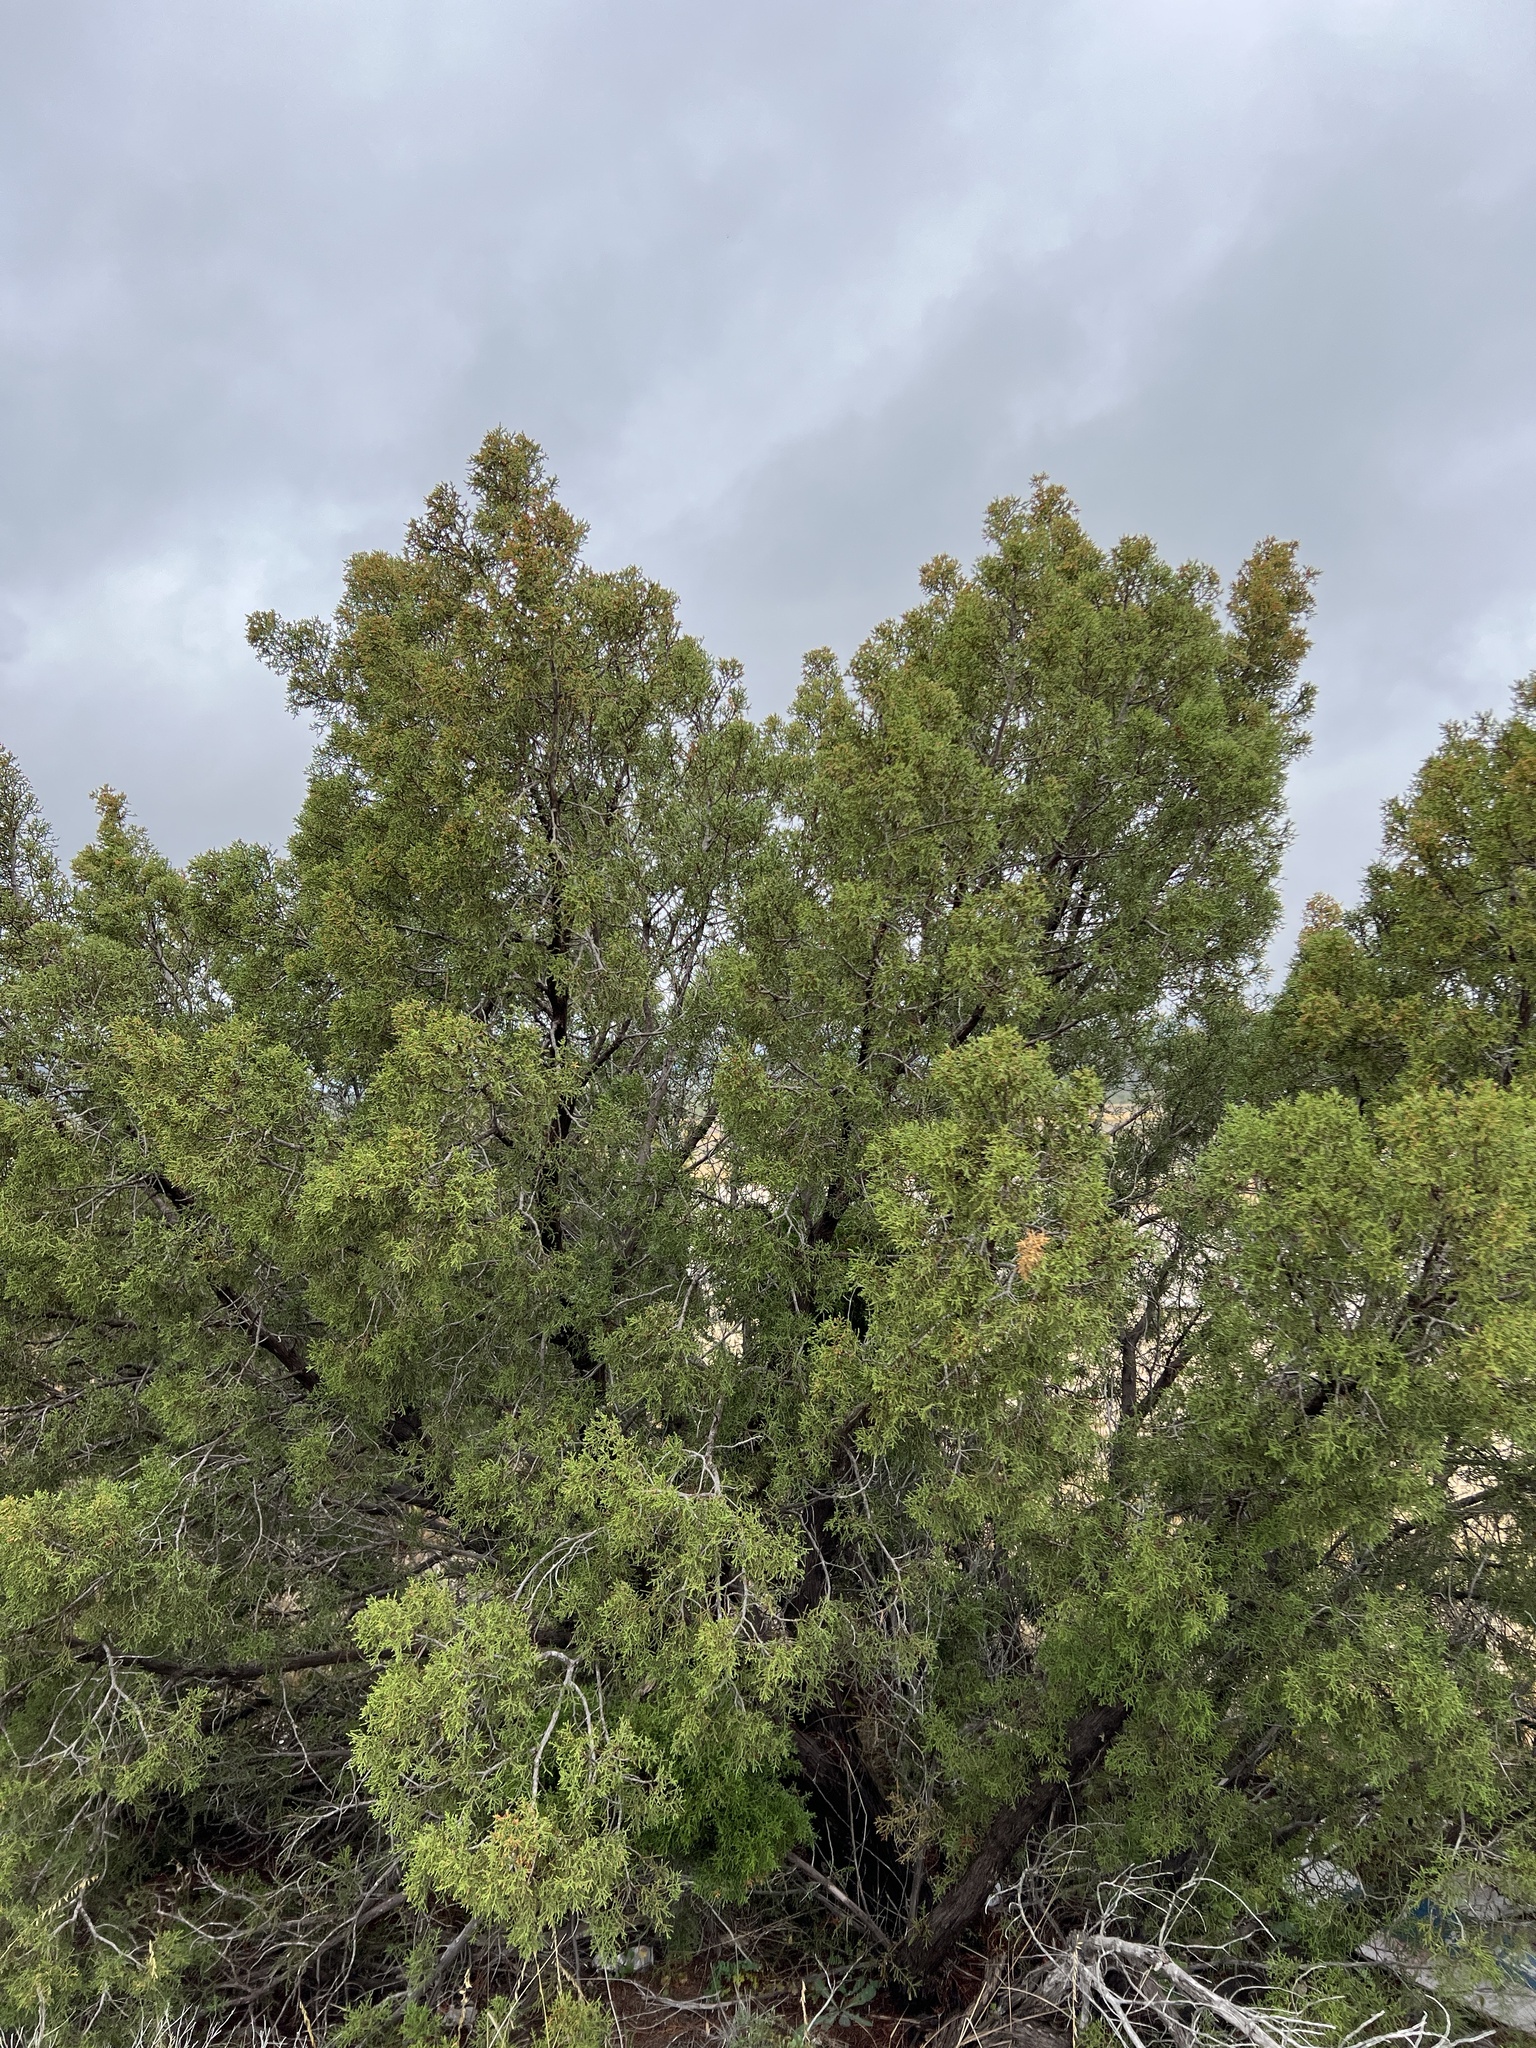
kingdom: Plantae
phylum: Tracheophyta
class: Pinopsida
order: Pinales
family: Cupressaceae
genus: Juniperus
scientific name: Juniperus pinchotii
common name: Pinchot juniper
